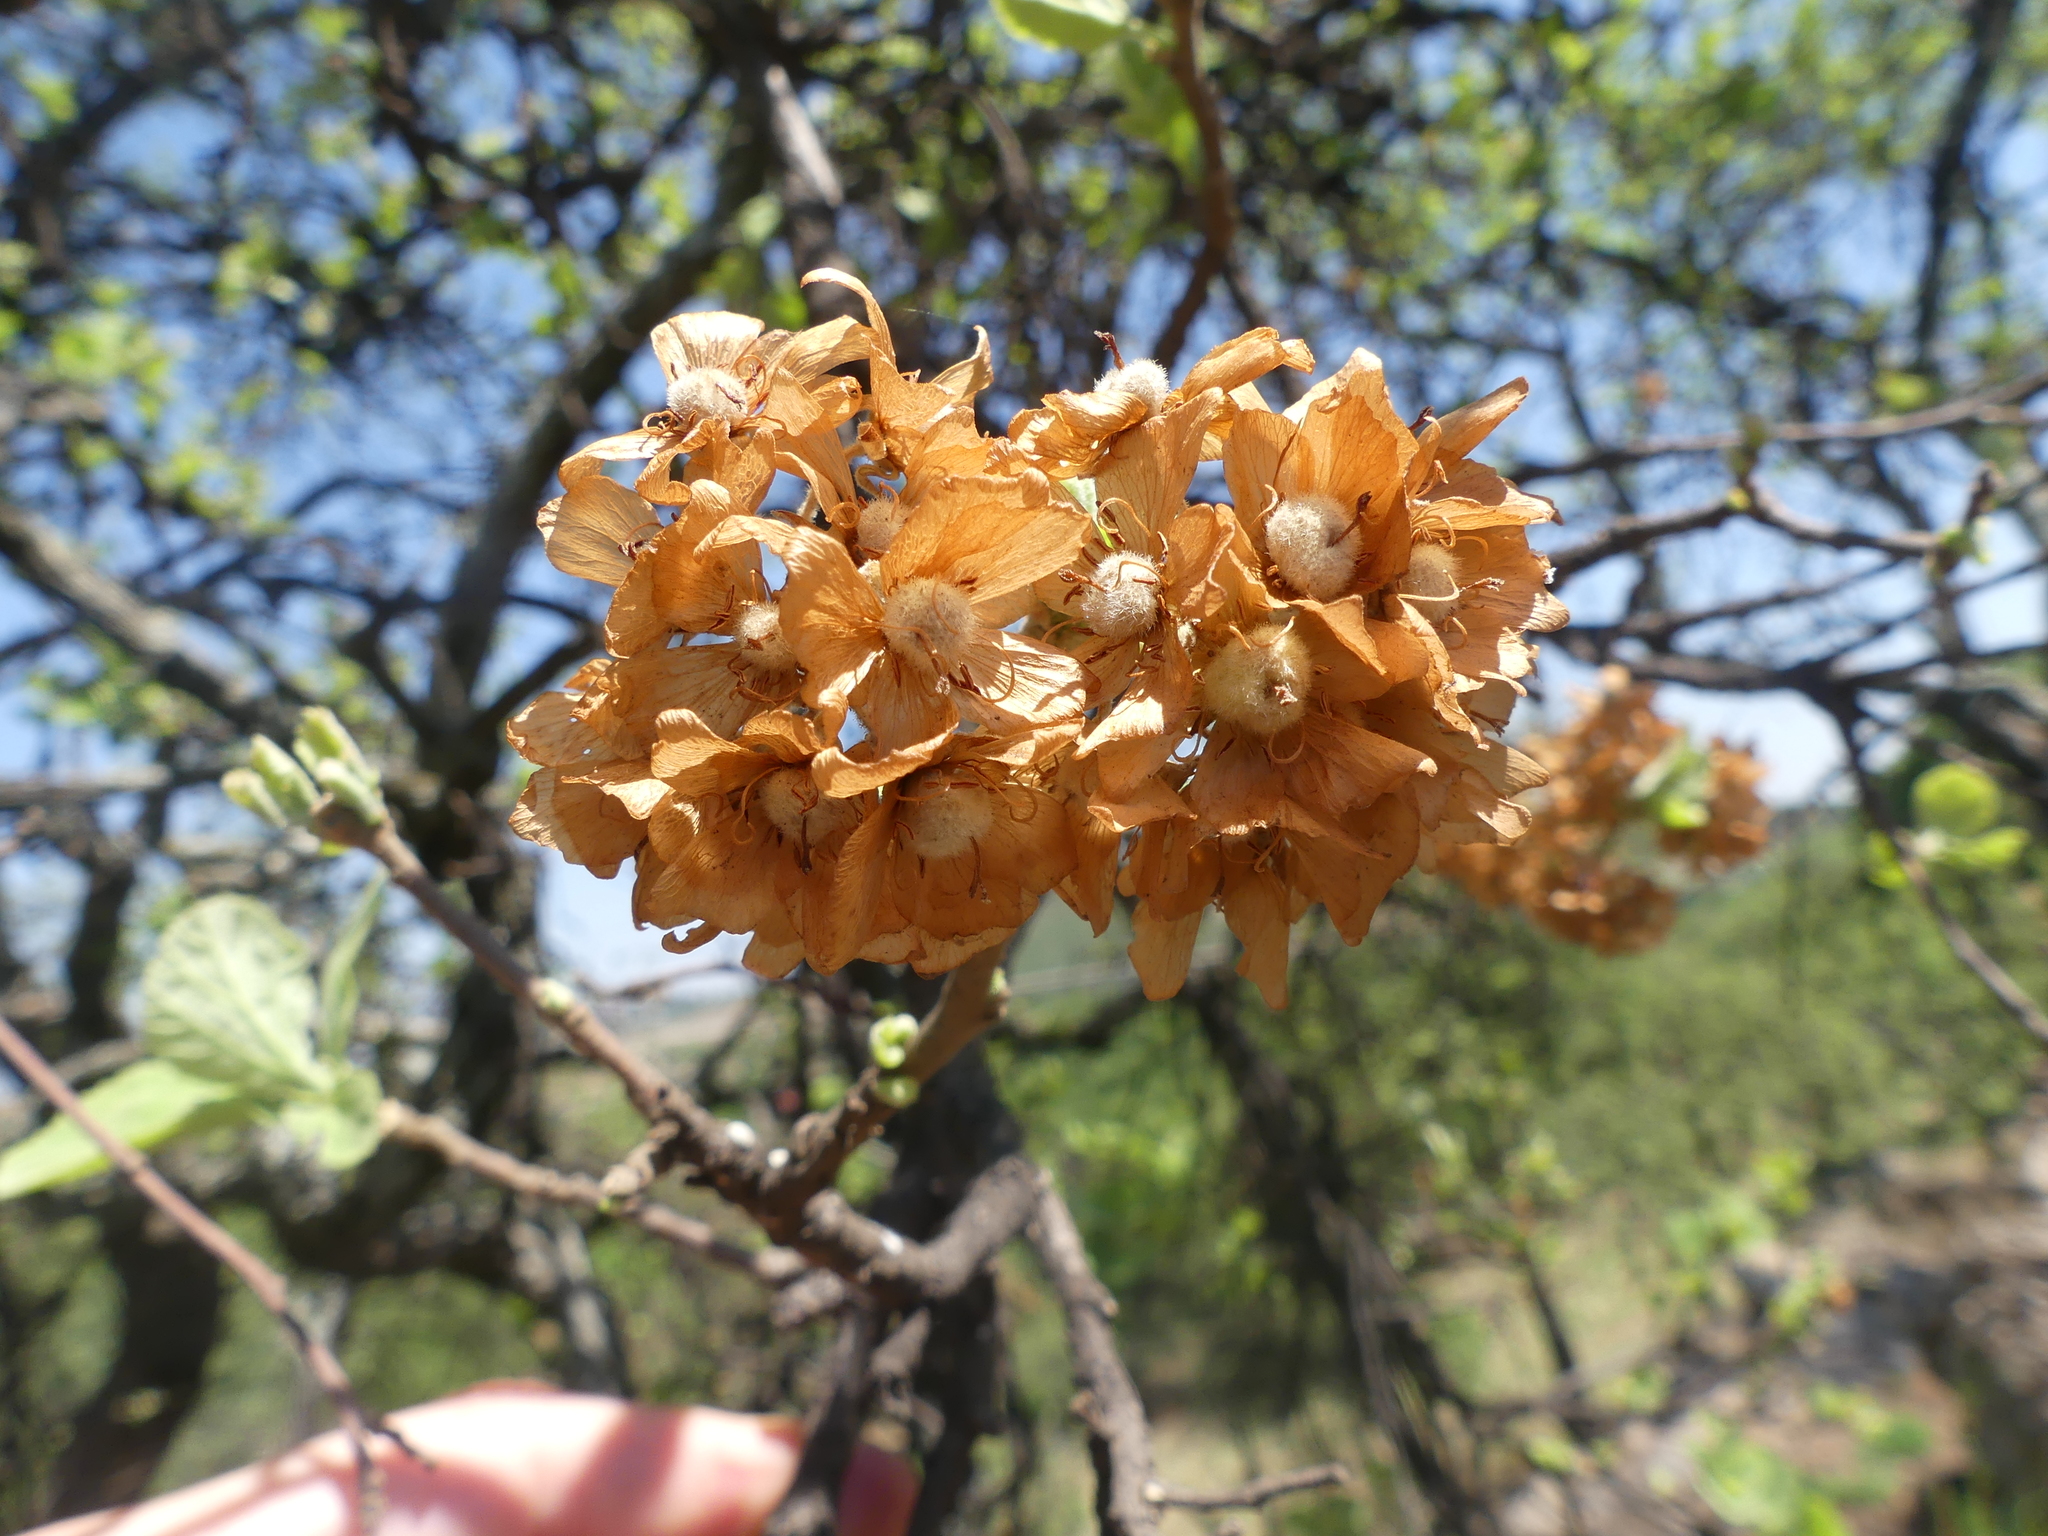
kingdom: Plantae
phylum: Tracheophyta
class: Magnoliopsida
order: Malvales
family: Malvaceae
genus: Dombeya
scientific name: Dombeya rotundifolia
